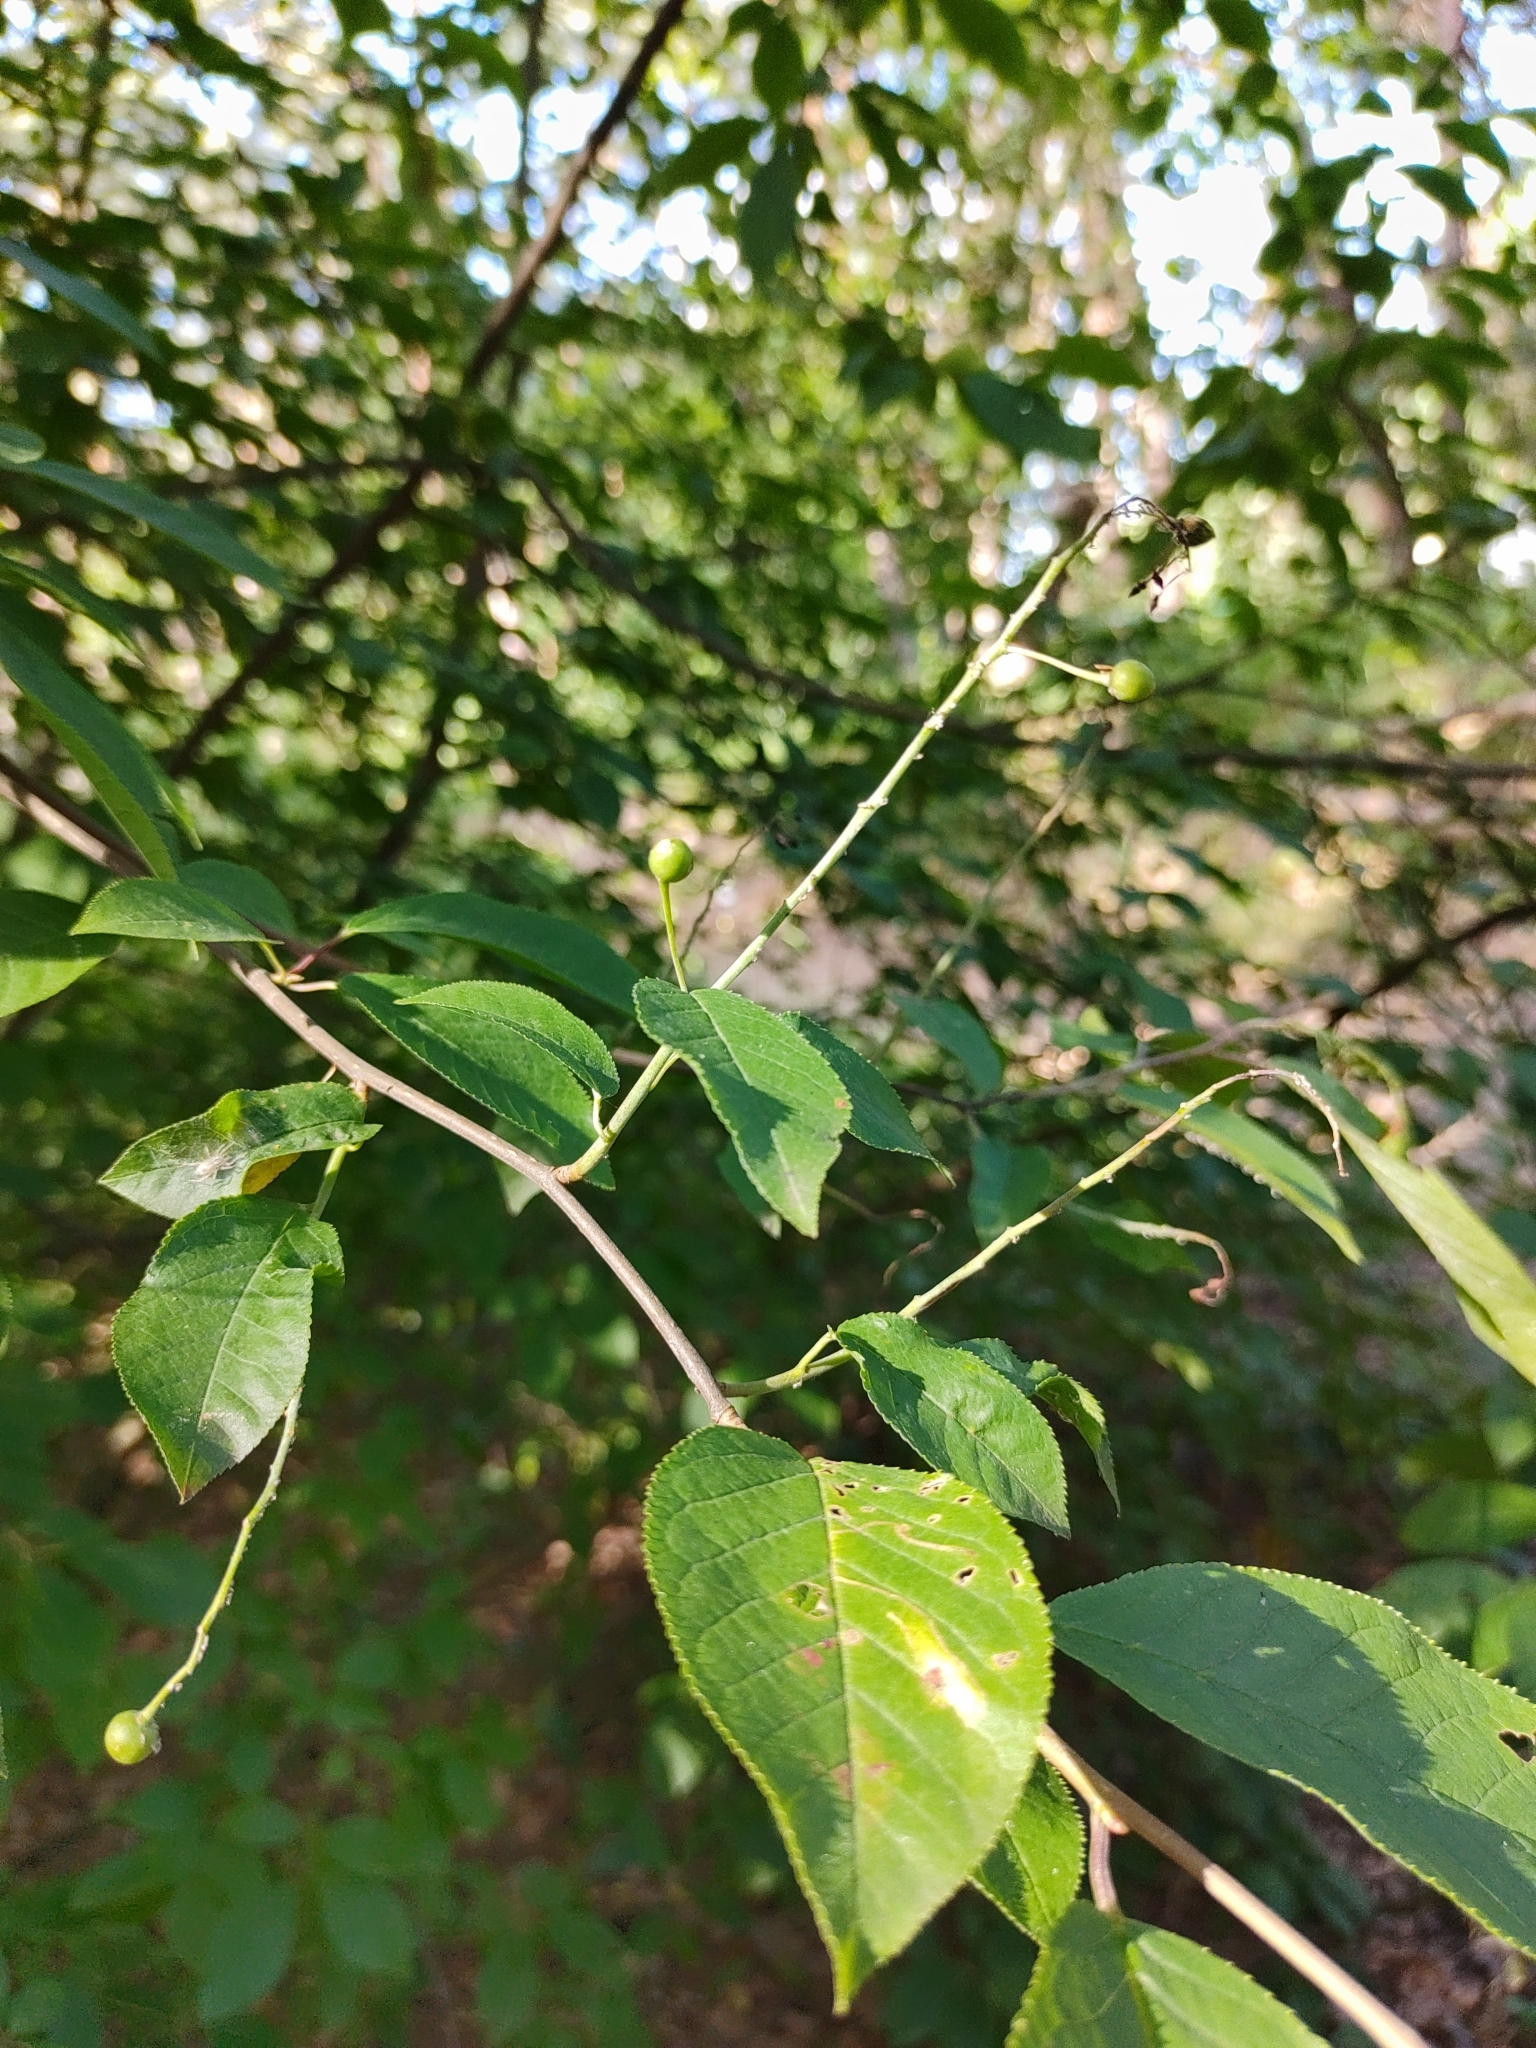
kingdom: Plantae
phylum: Tracheophyta
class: Magnoliopsida
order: Rosales
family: Rosaceae
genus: Prunus
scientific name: Prunus padus
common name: Bird cherry
